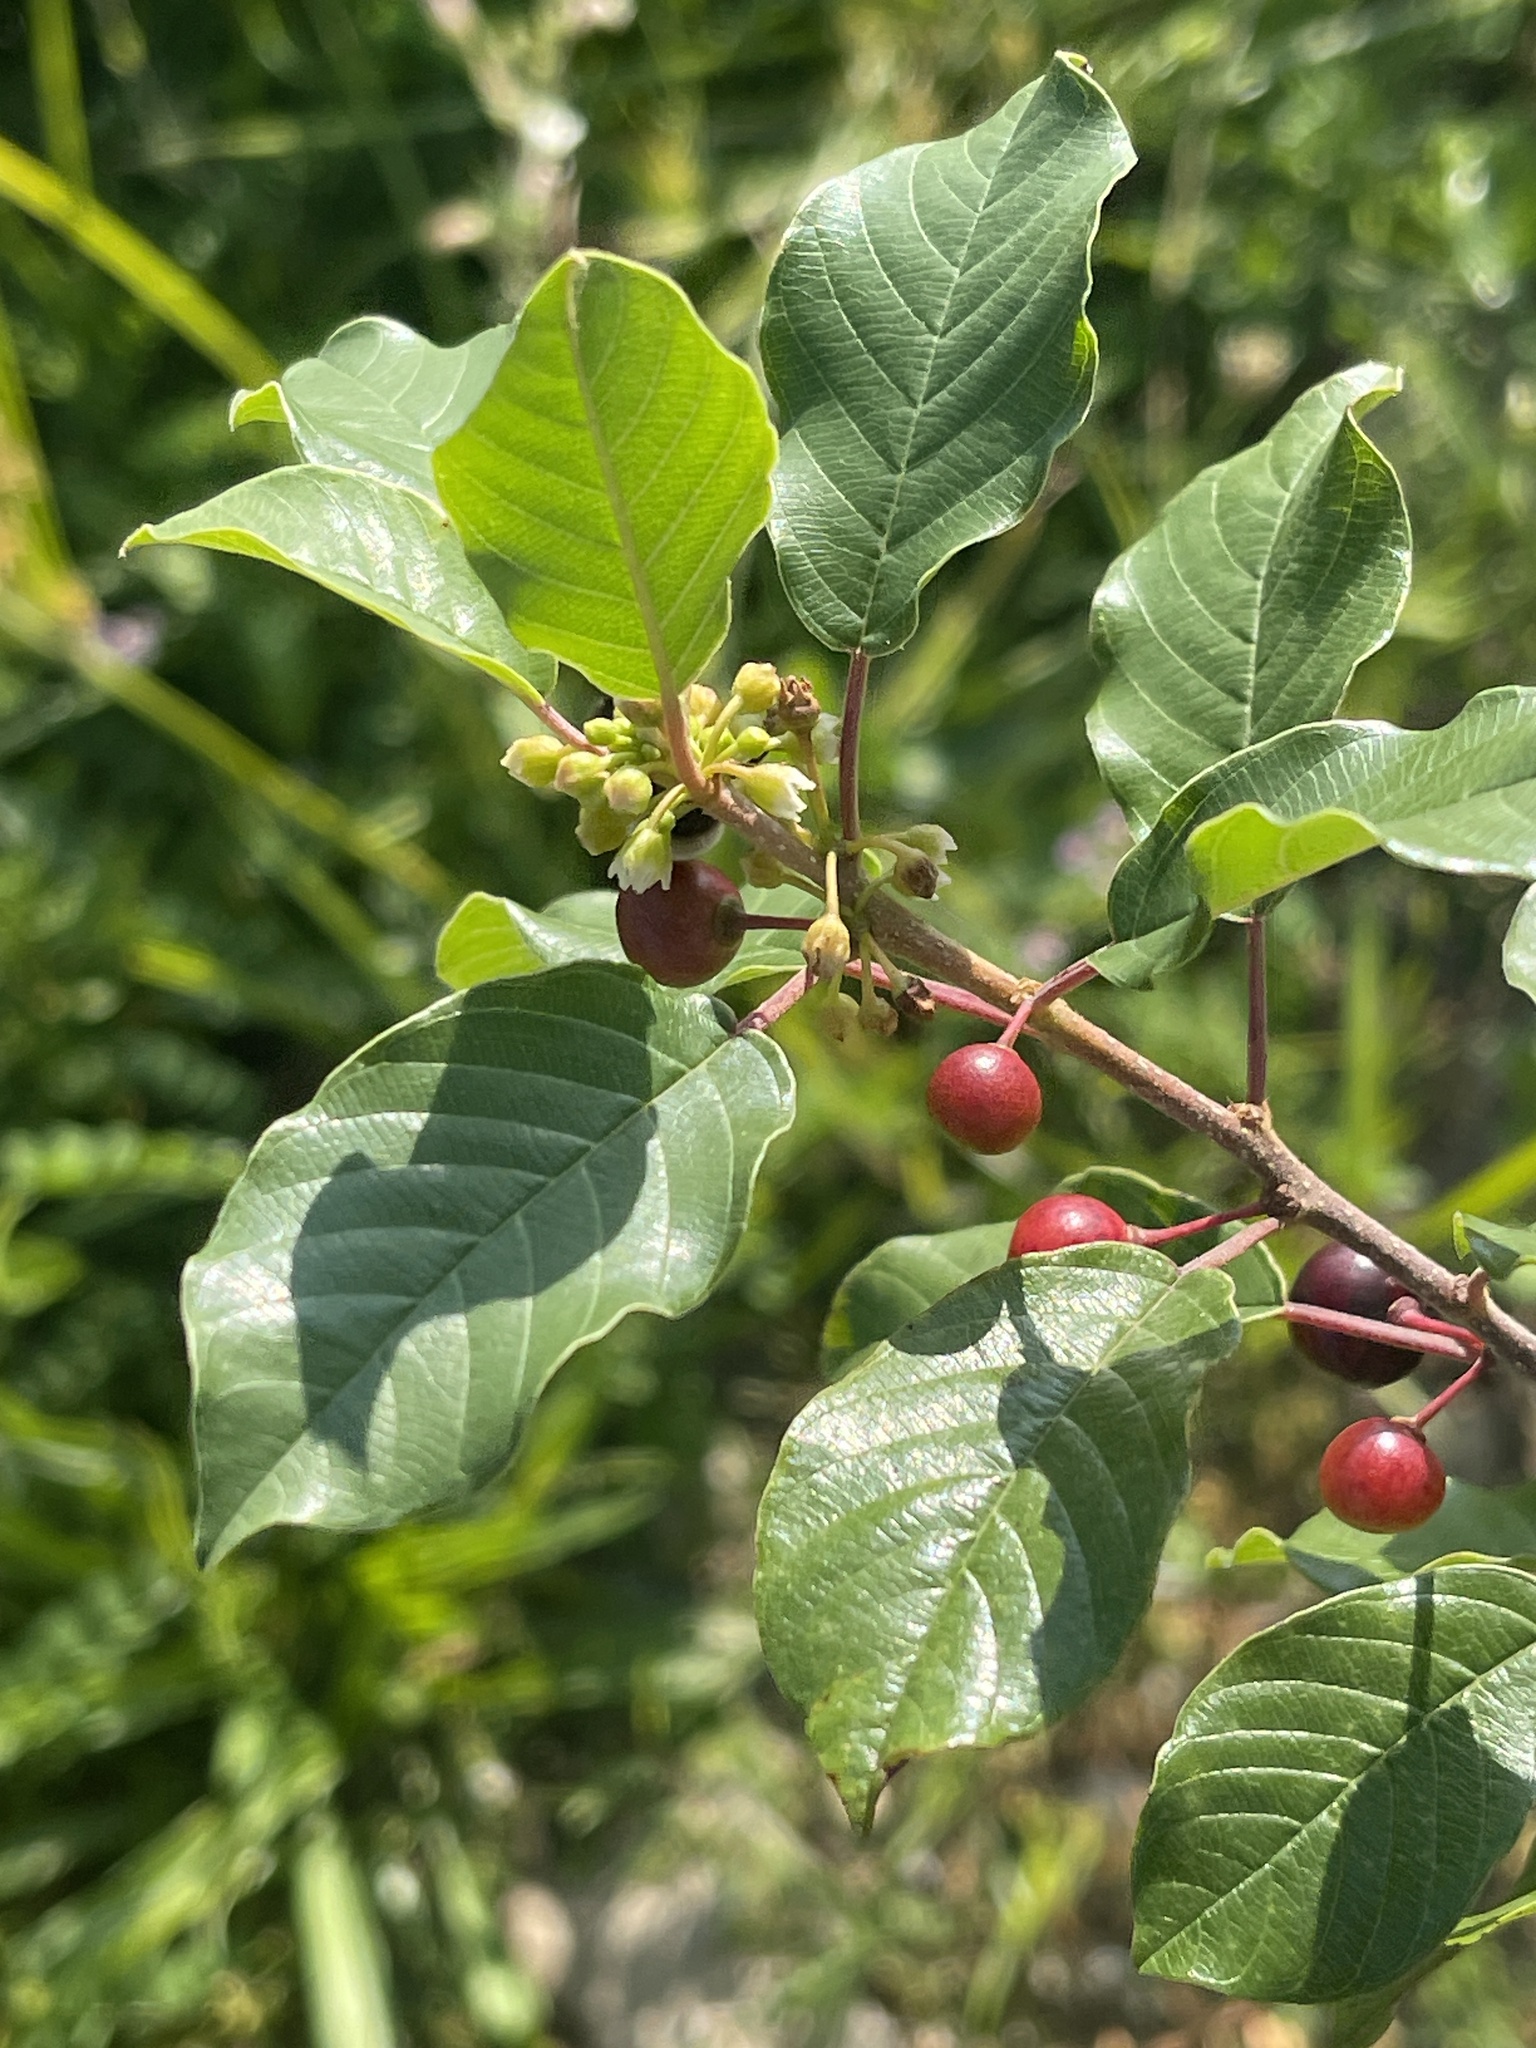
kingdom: Plantae
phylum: Tracheophyta
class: Magnoliopsida
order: Rosales
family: Rhamnaceae
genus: Frangula
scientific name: Frangula alnus
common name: Alder buckthorn
